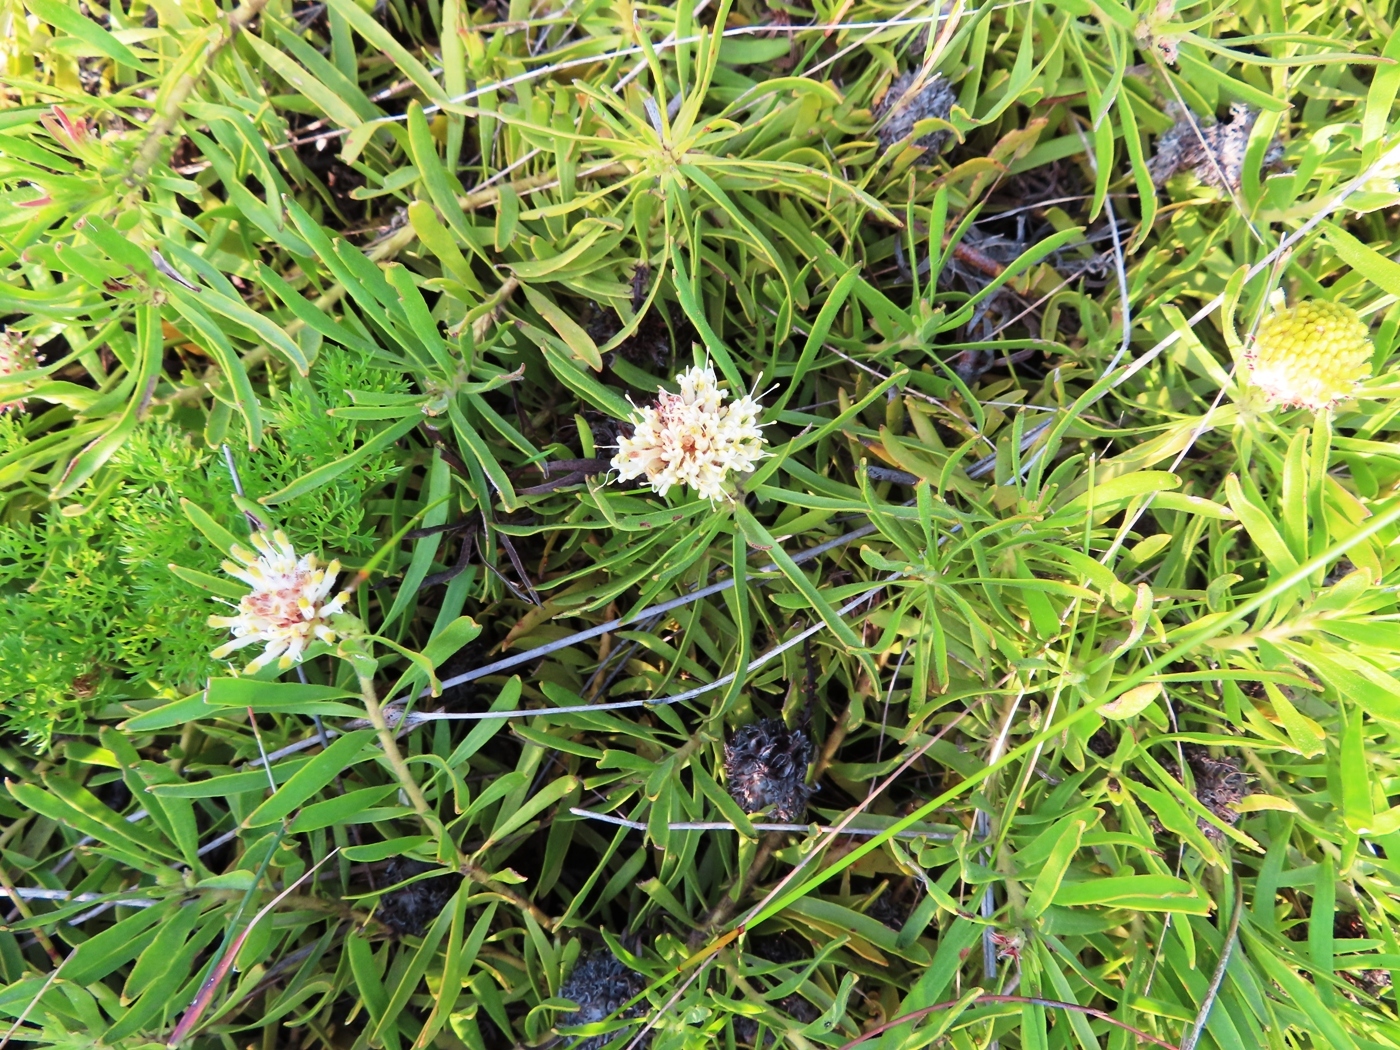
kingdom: Plantae
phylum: Tracheophyta
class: Magnoliopsida
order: Proteales
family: Proteaceae
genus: Leucospermum
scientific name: Leucospermum pedunculatum
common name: White-trailing pincushion
